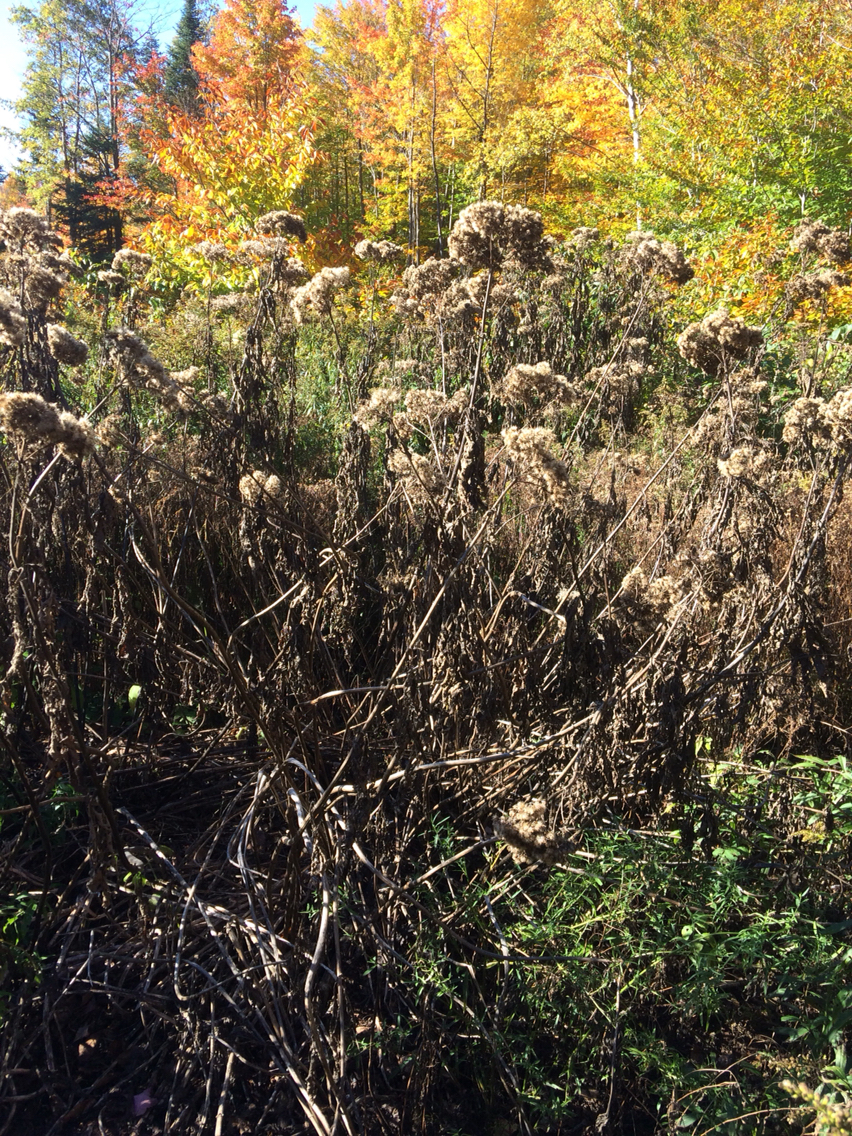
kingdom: Plantae
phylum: Tracheophyta
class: Magnoliopsida
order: Asterales
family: Asteraceae
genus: Eutrochium
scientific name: Eutrochium maculatum
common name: Spotted joe pye weed
